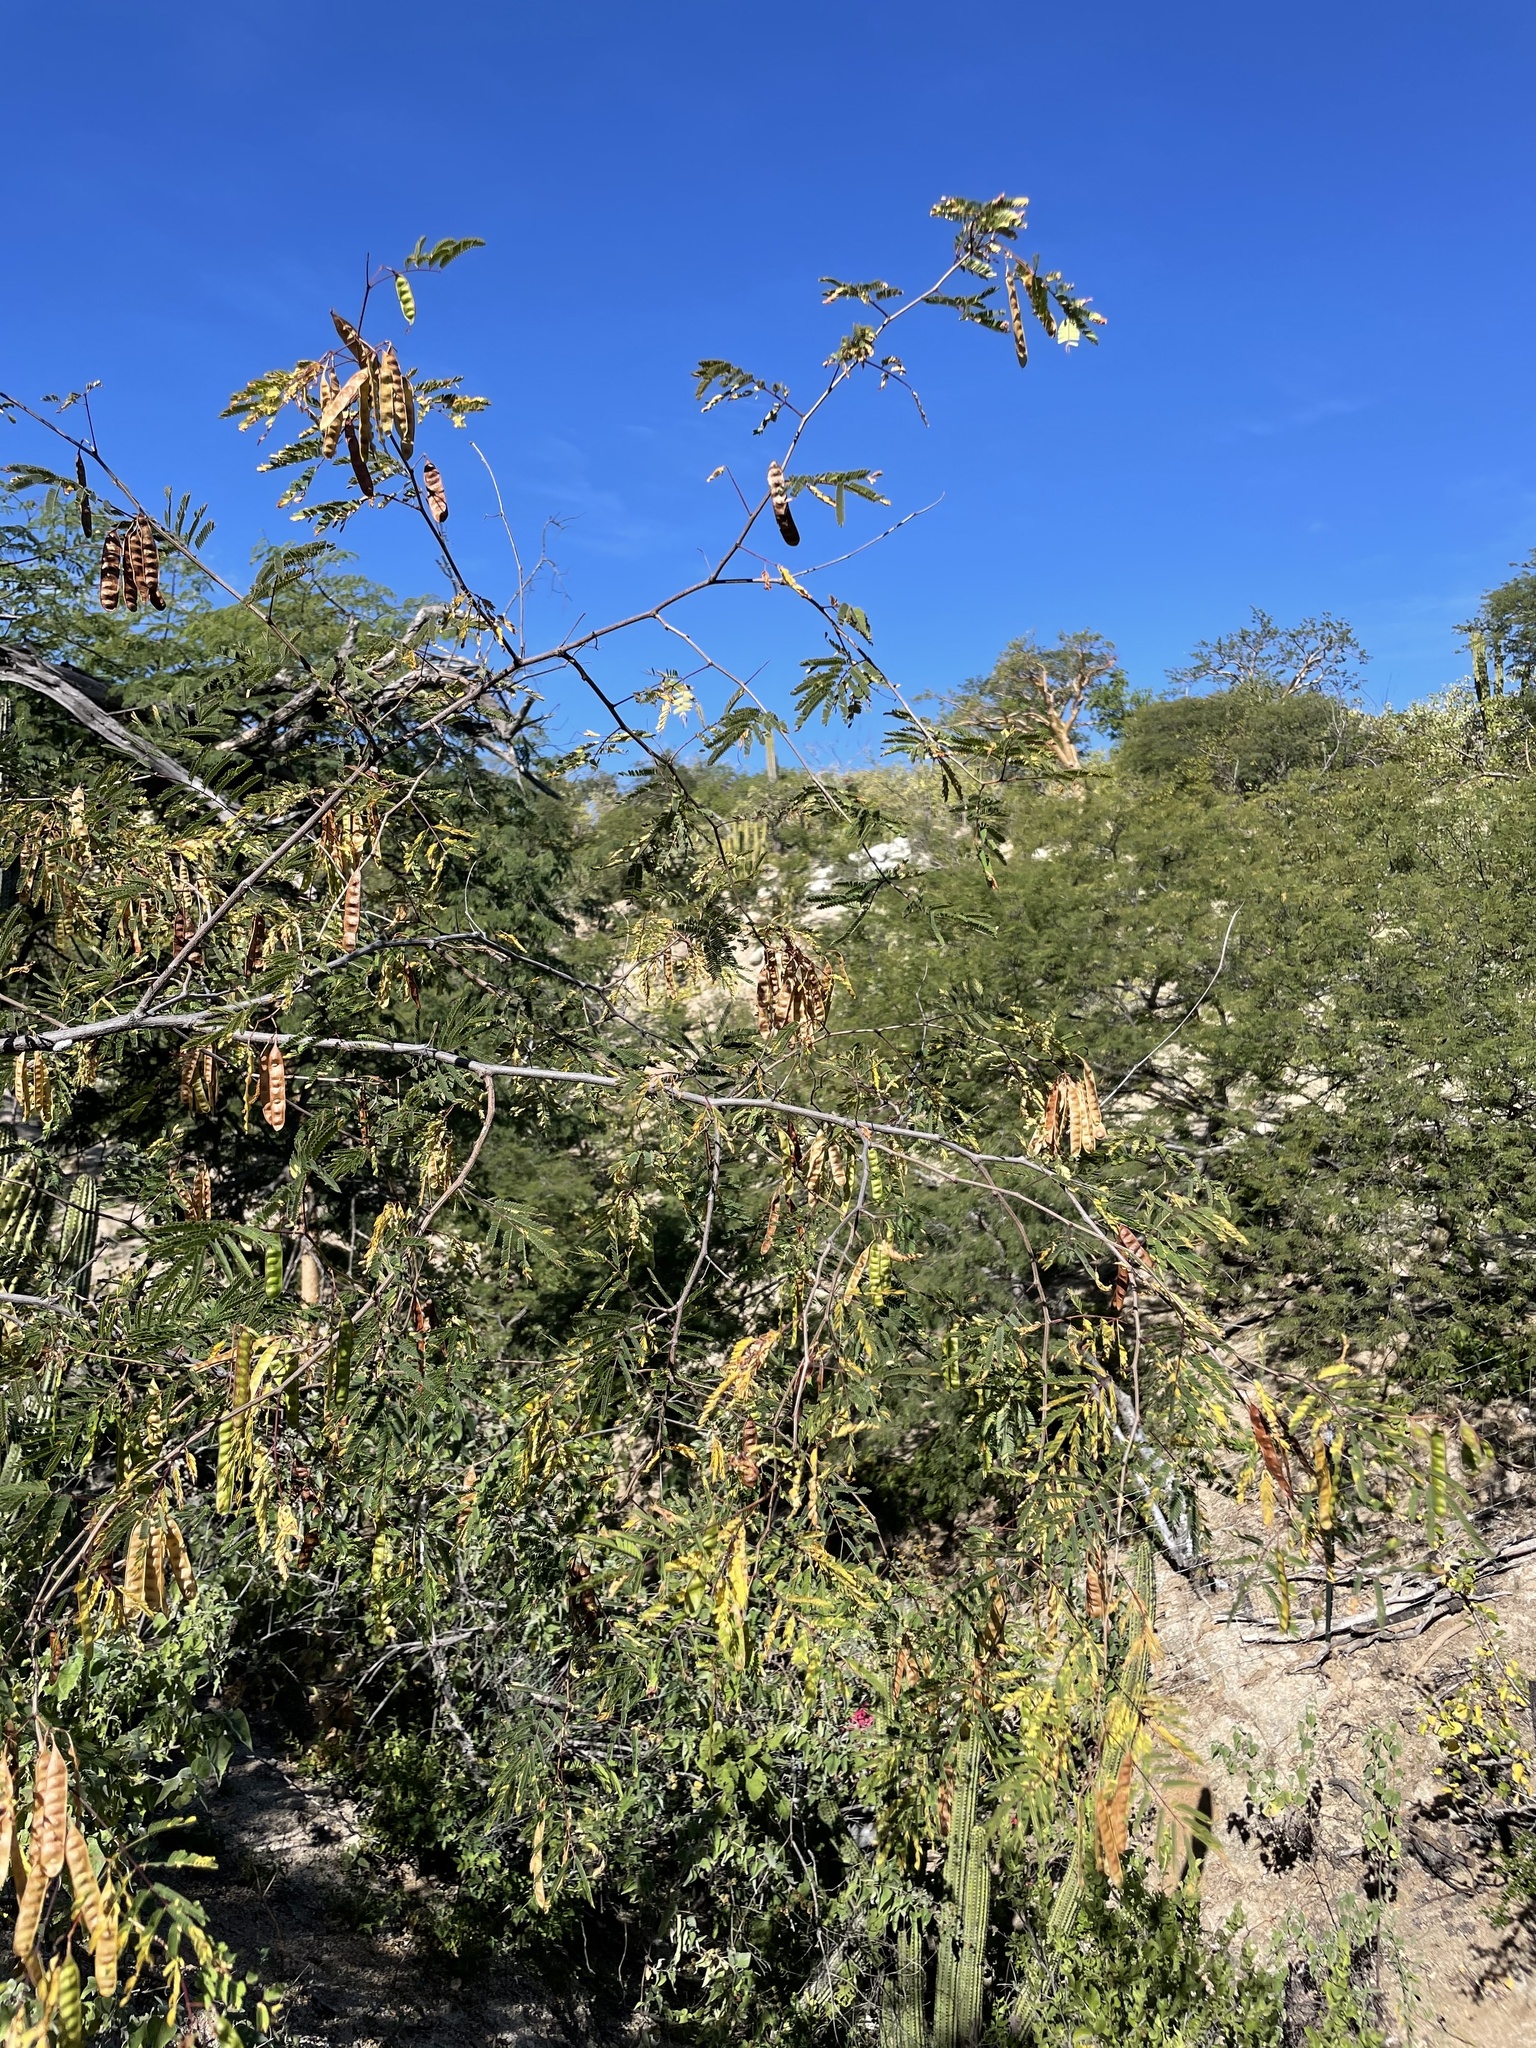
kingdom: Plantae
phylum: Tracheophyta
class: Magnoliopsida
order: Fabales
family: Fabaceae
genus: Acaciella
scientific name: Acaciella goldmanii
